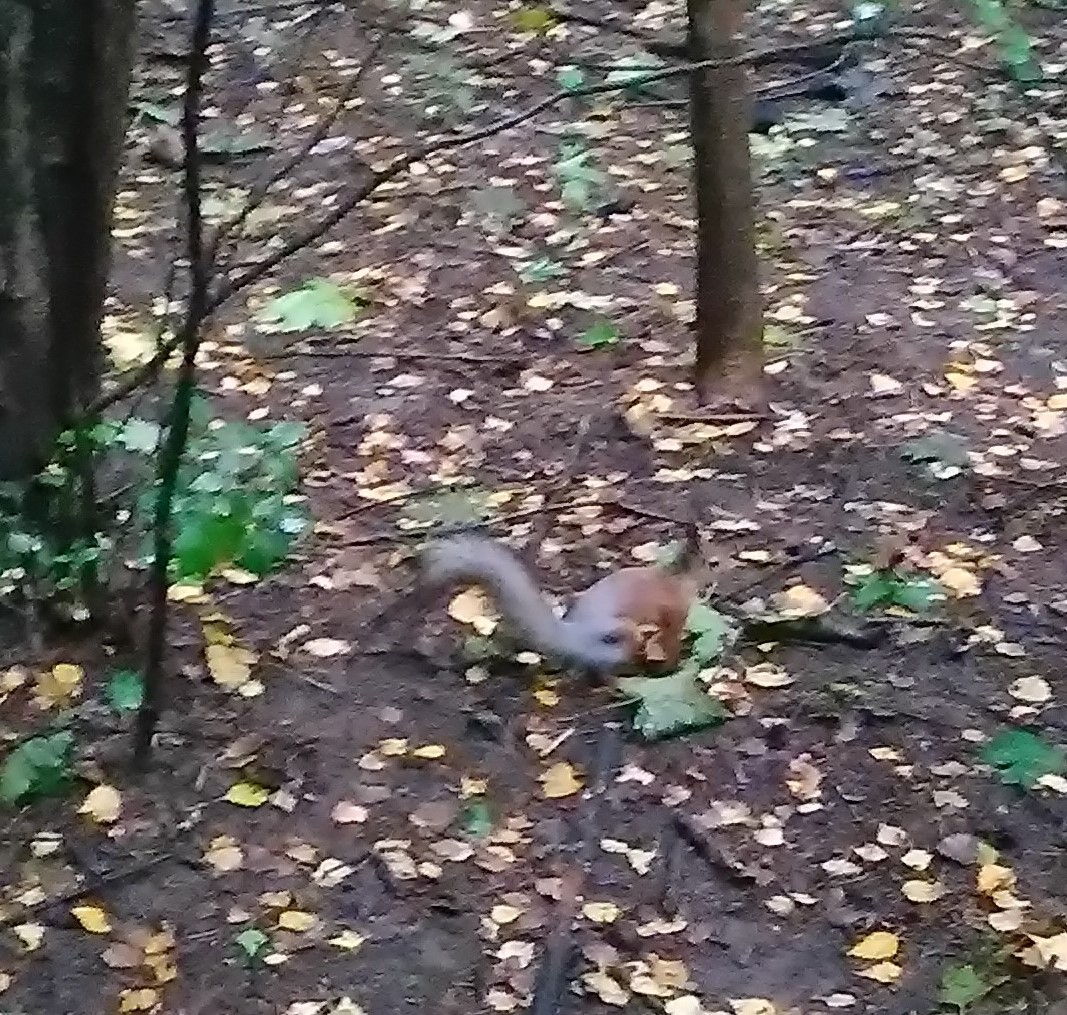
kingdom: Animalia
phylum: Chordata
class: Mammalia
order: Rodentia
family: Sciuridae
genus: Sciurus
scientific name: Sciurus vulgaris
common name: Eurasian red squirrel
